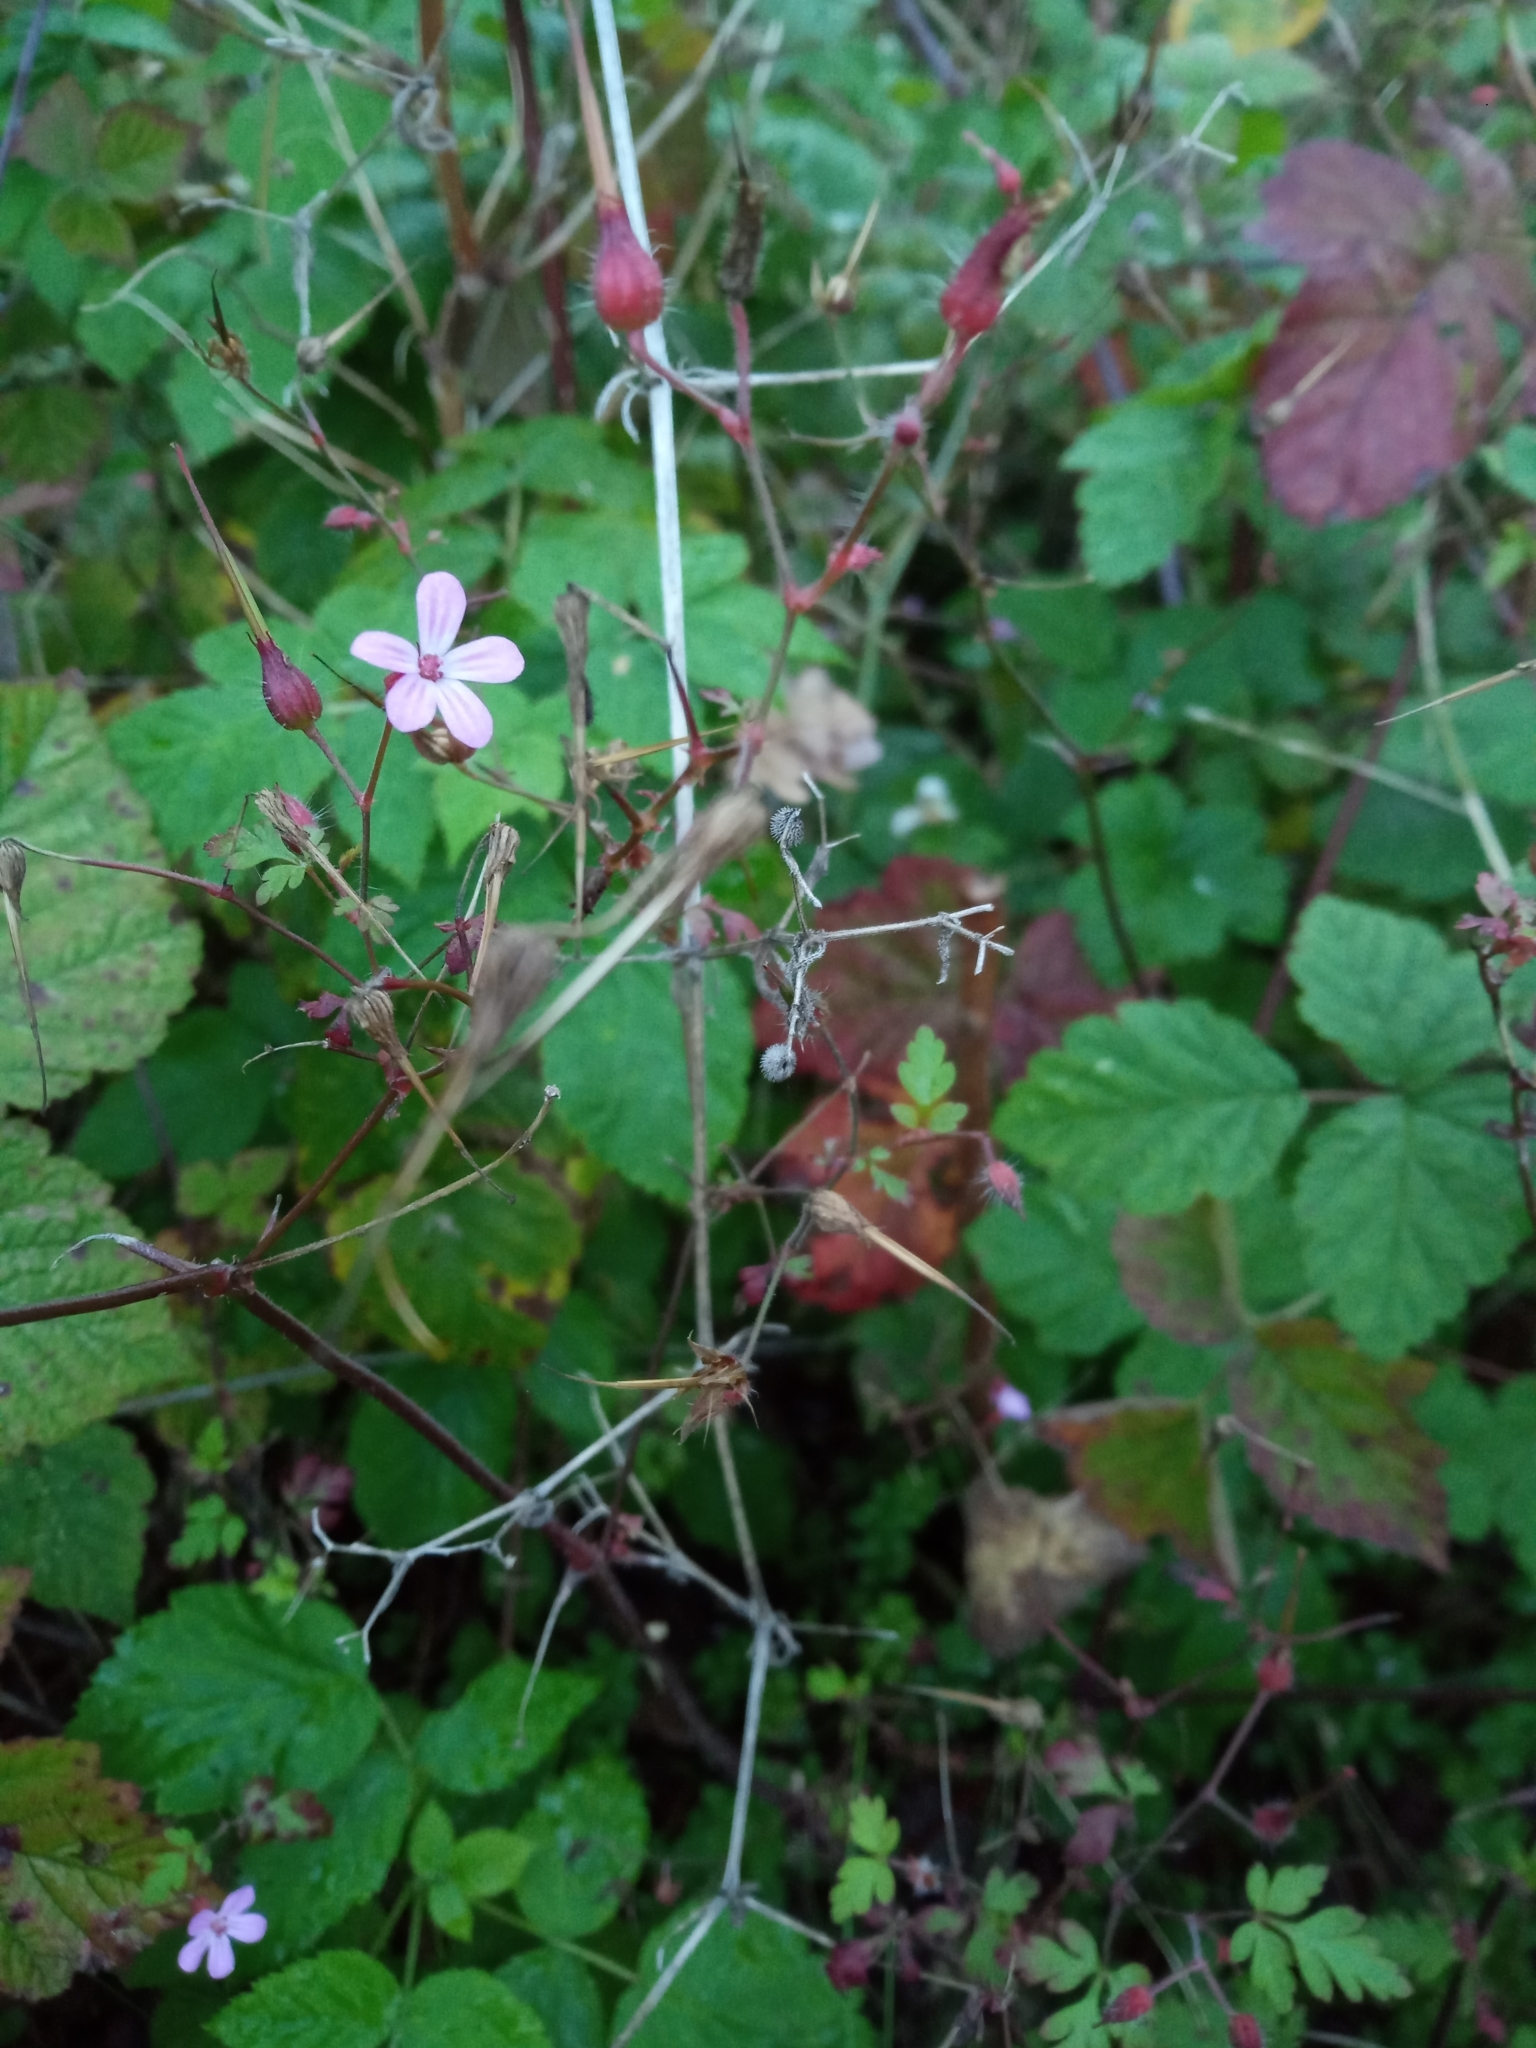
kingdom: Plantae
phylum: Tracheophyta
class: Magnoliopsida
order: Geraniales
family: Geraniaceae
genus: Geranium
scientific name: Geranium robertianum
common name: Herb-robert
